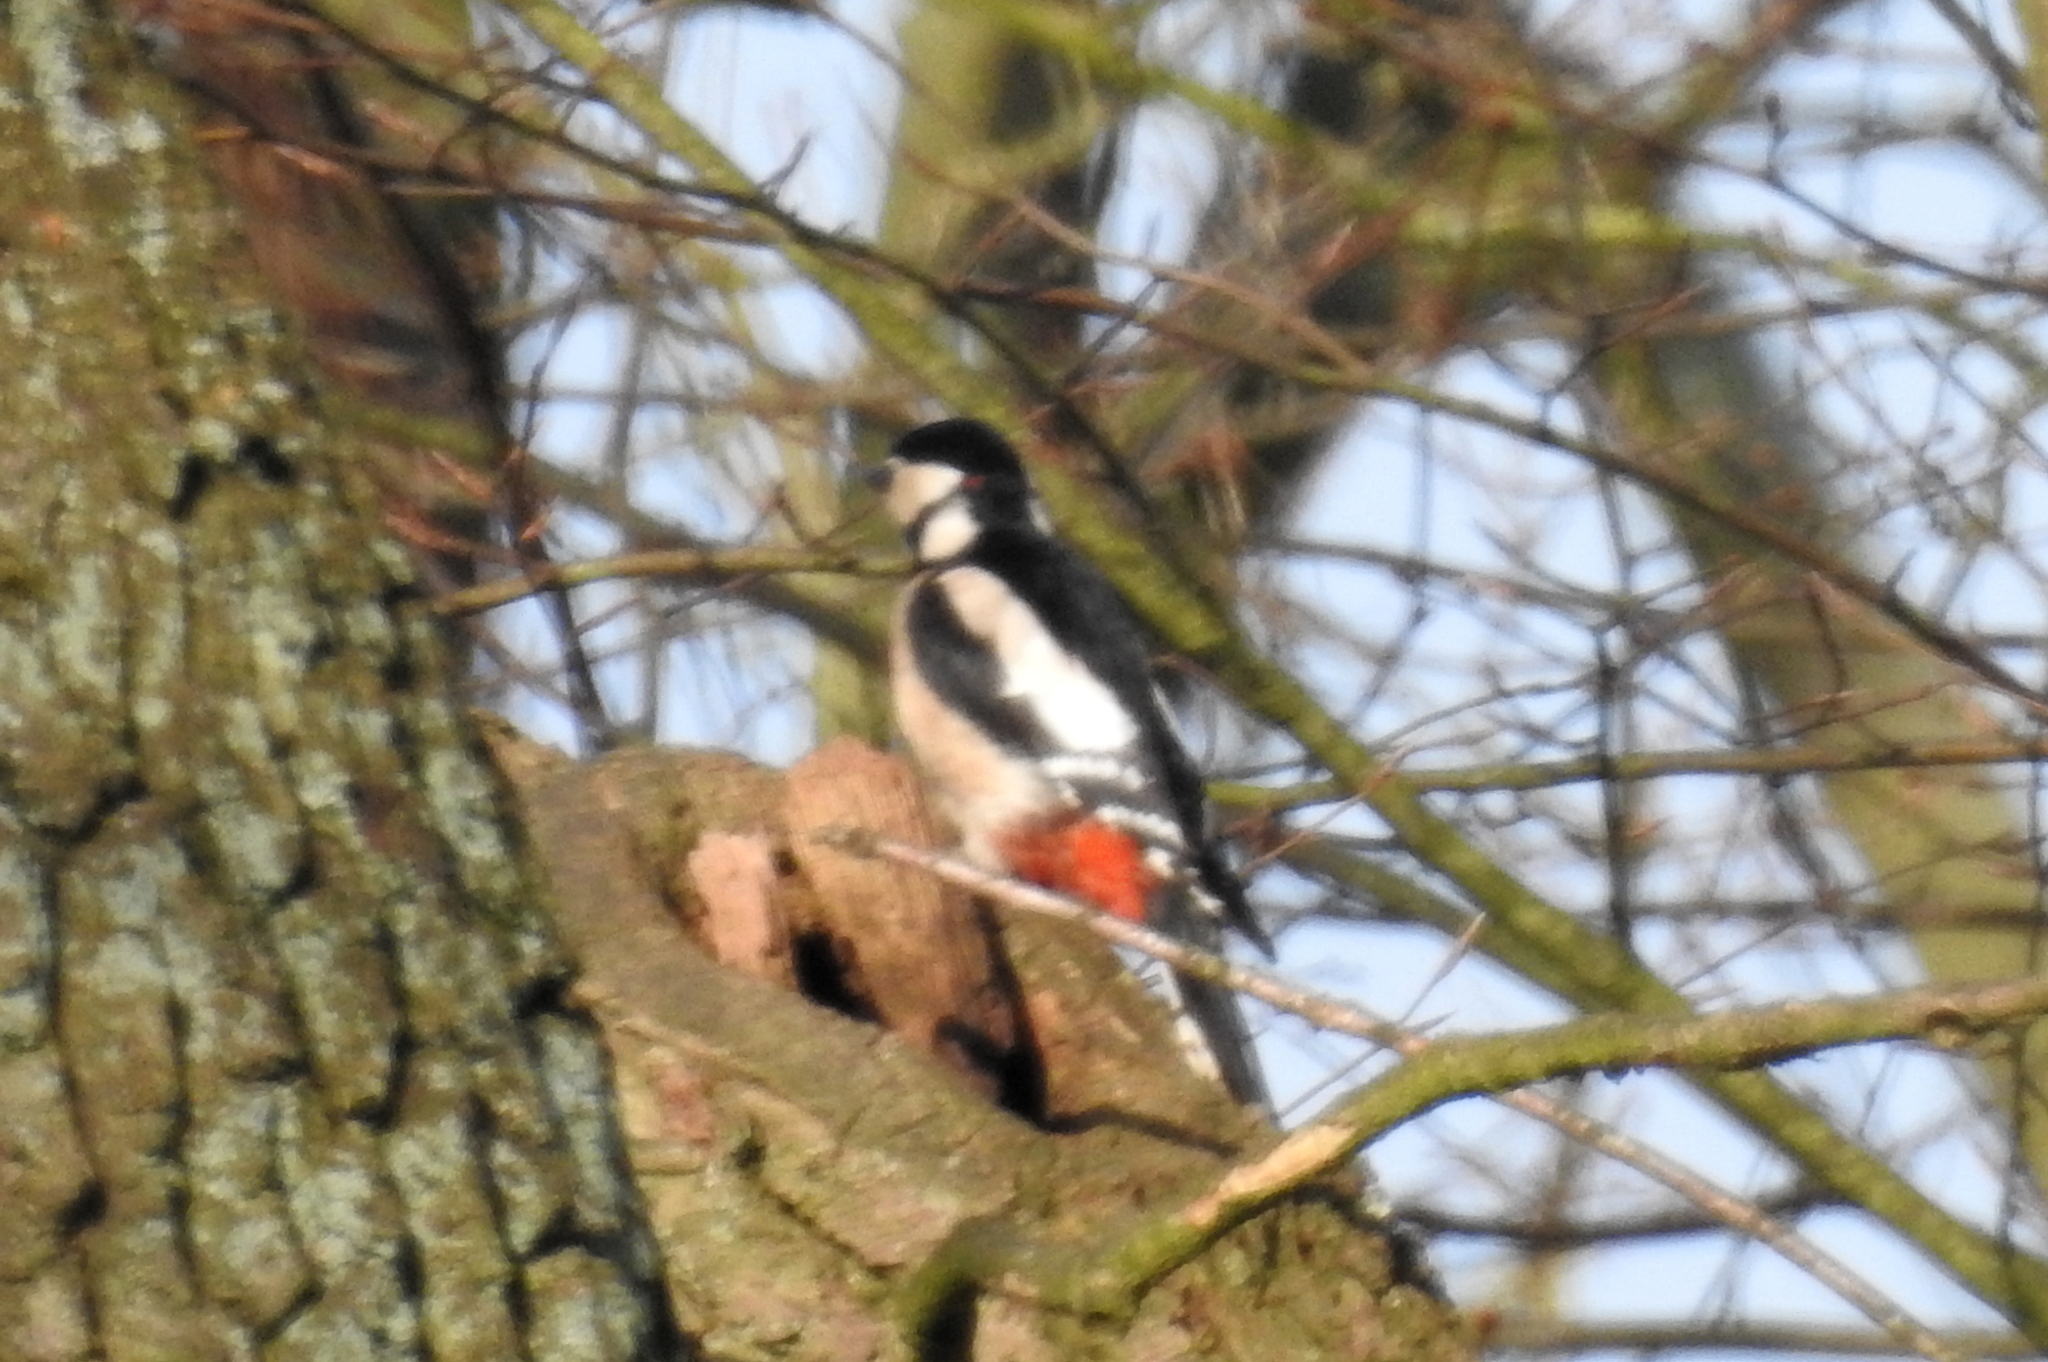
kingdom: Animalia
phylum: Chordata
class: Aves
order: Piciformes
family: Picidae
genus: Dendrocopos
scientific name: Dendrocopos major
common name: Great spotted woodpecker
